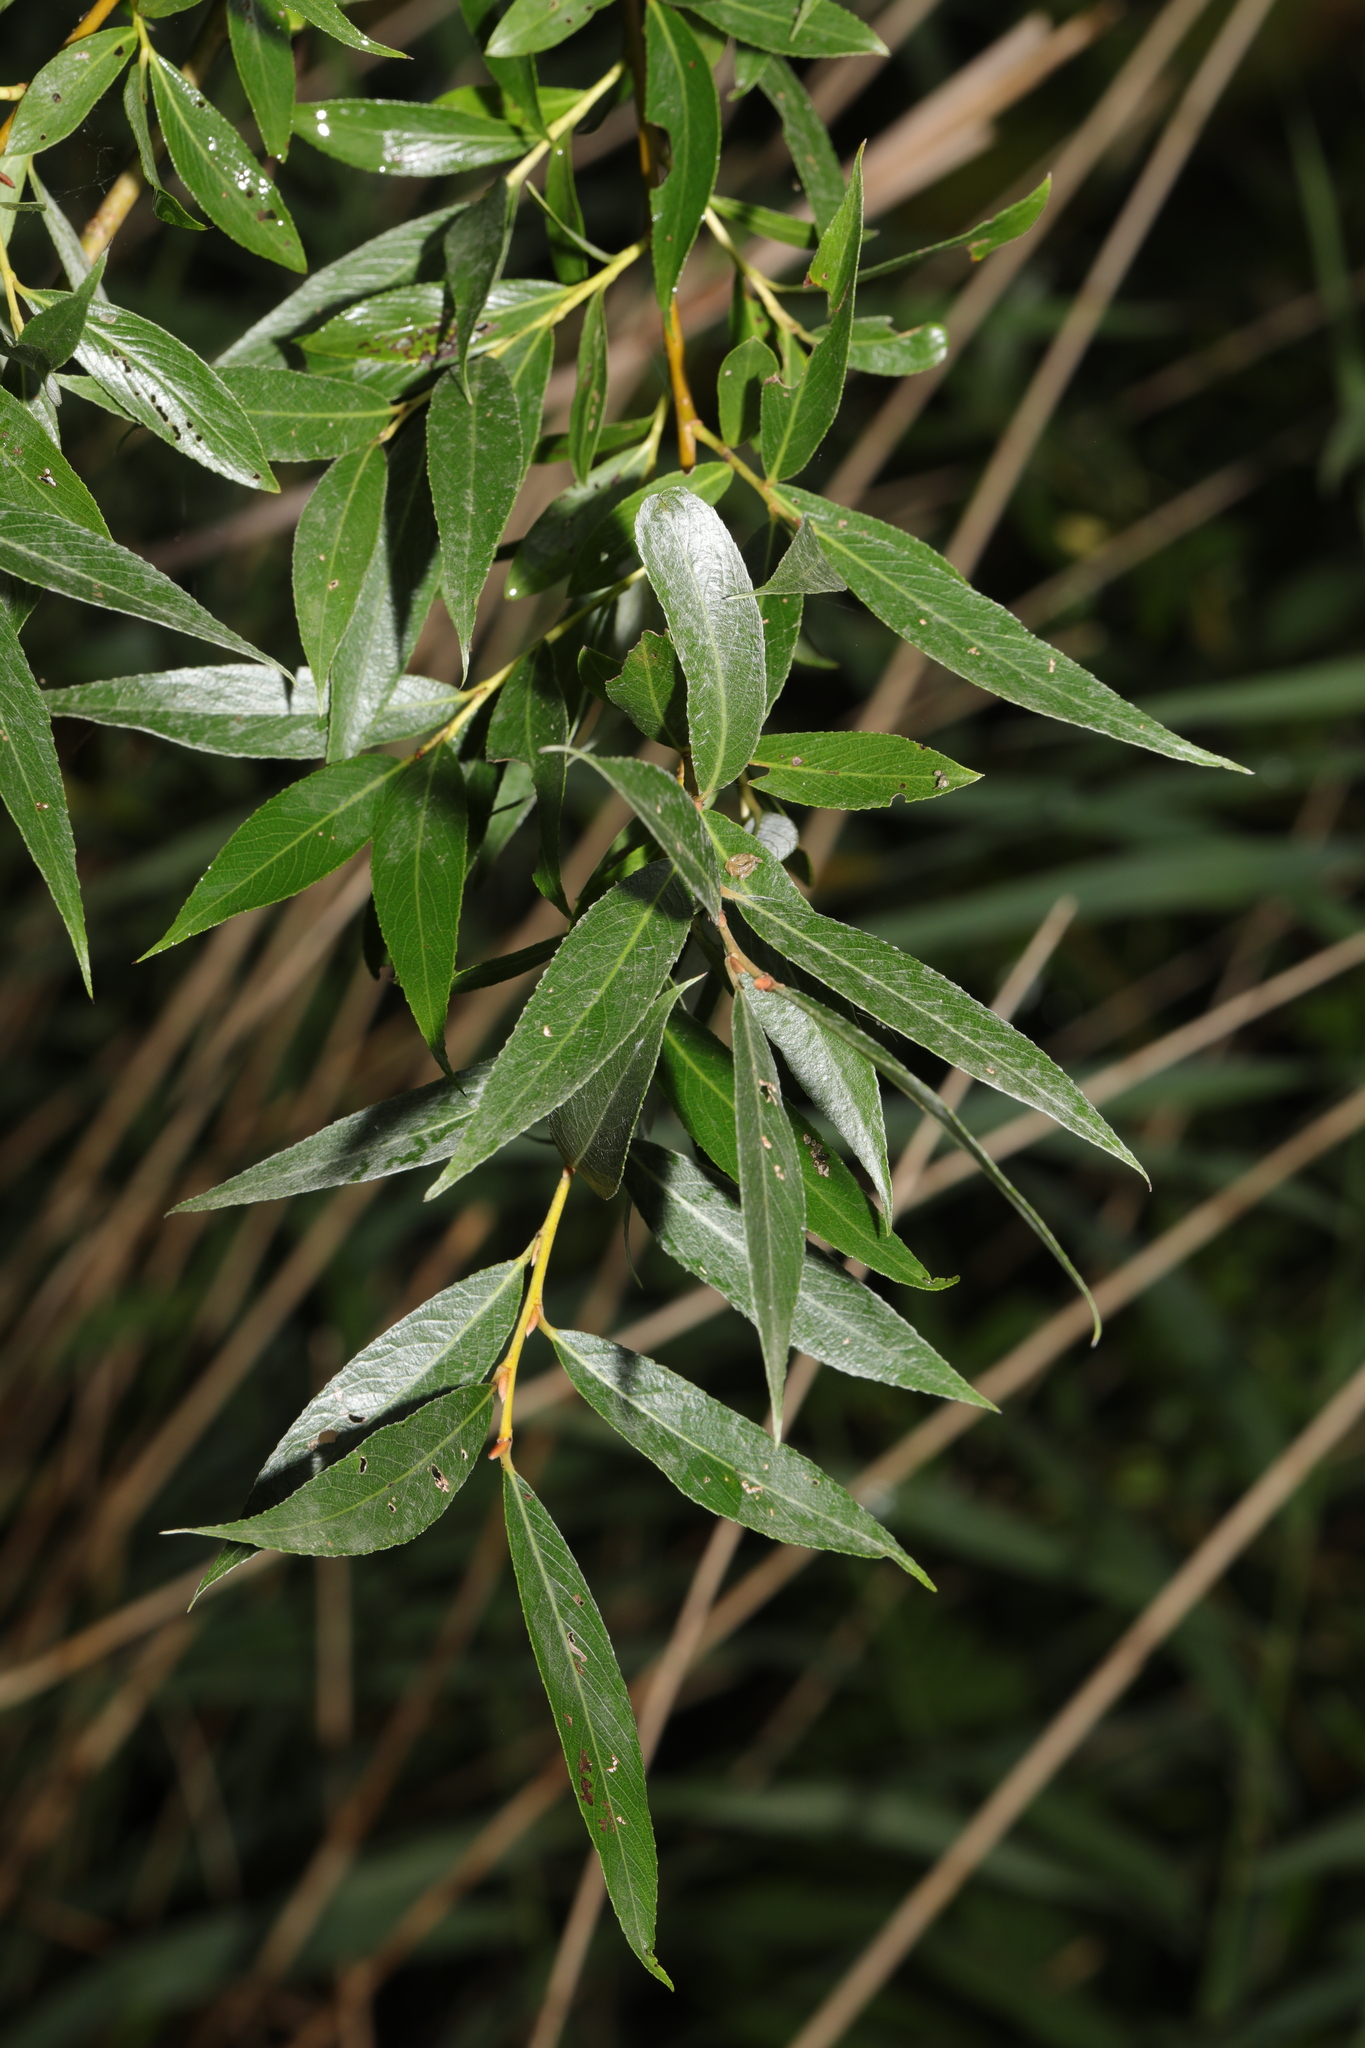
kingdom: Plantae
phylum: Tracheophyta
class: Magnoliopsida
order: Malpighiales
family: Salicaceae
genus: Salix
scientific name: Salix alba
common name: White willow
